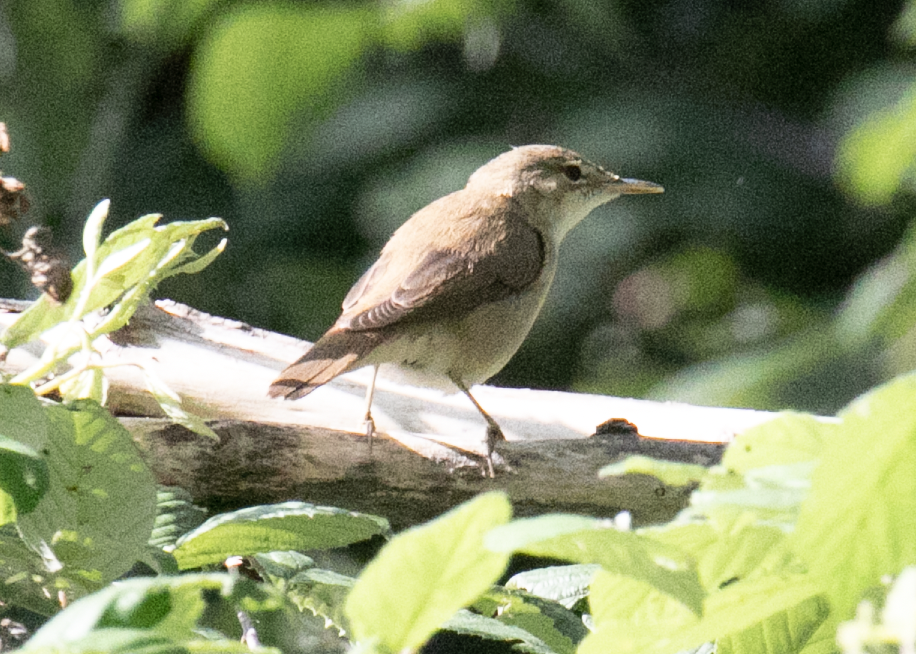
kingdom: Animalia
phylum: Chordata
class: Aves
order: Passeriformes
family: Acrocephalidae
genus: Acrocephalus
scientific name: Acrocephalus scirpaceus
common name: Eurasian reed warbler
